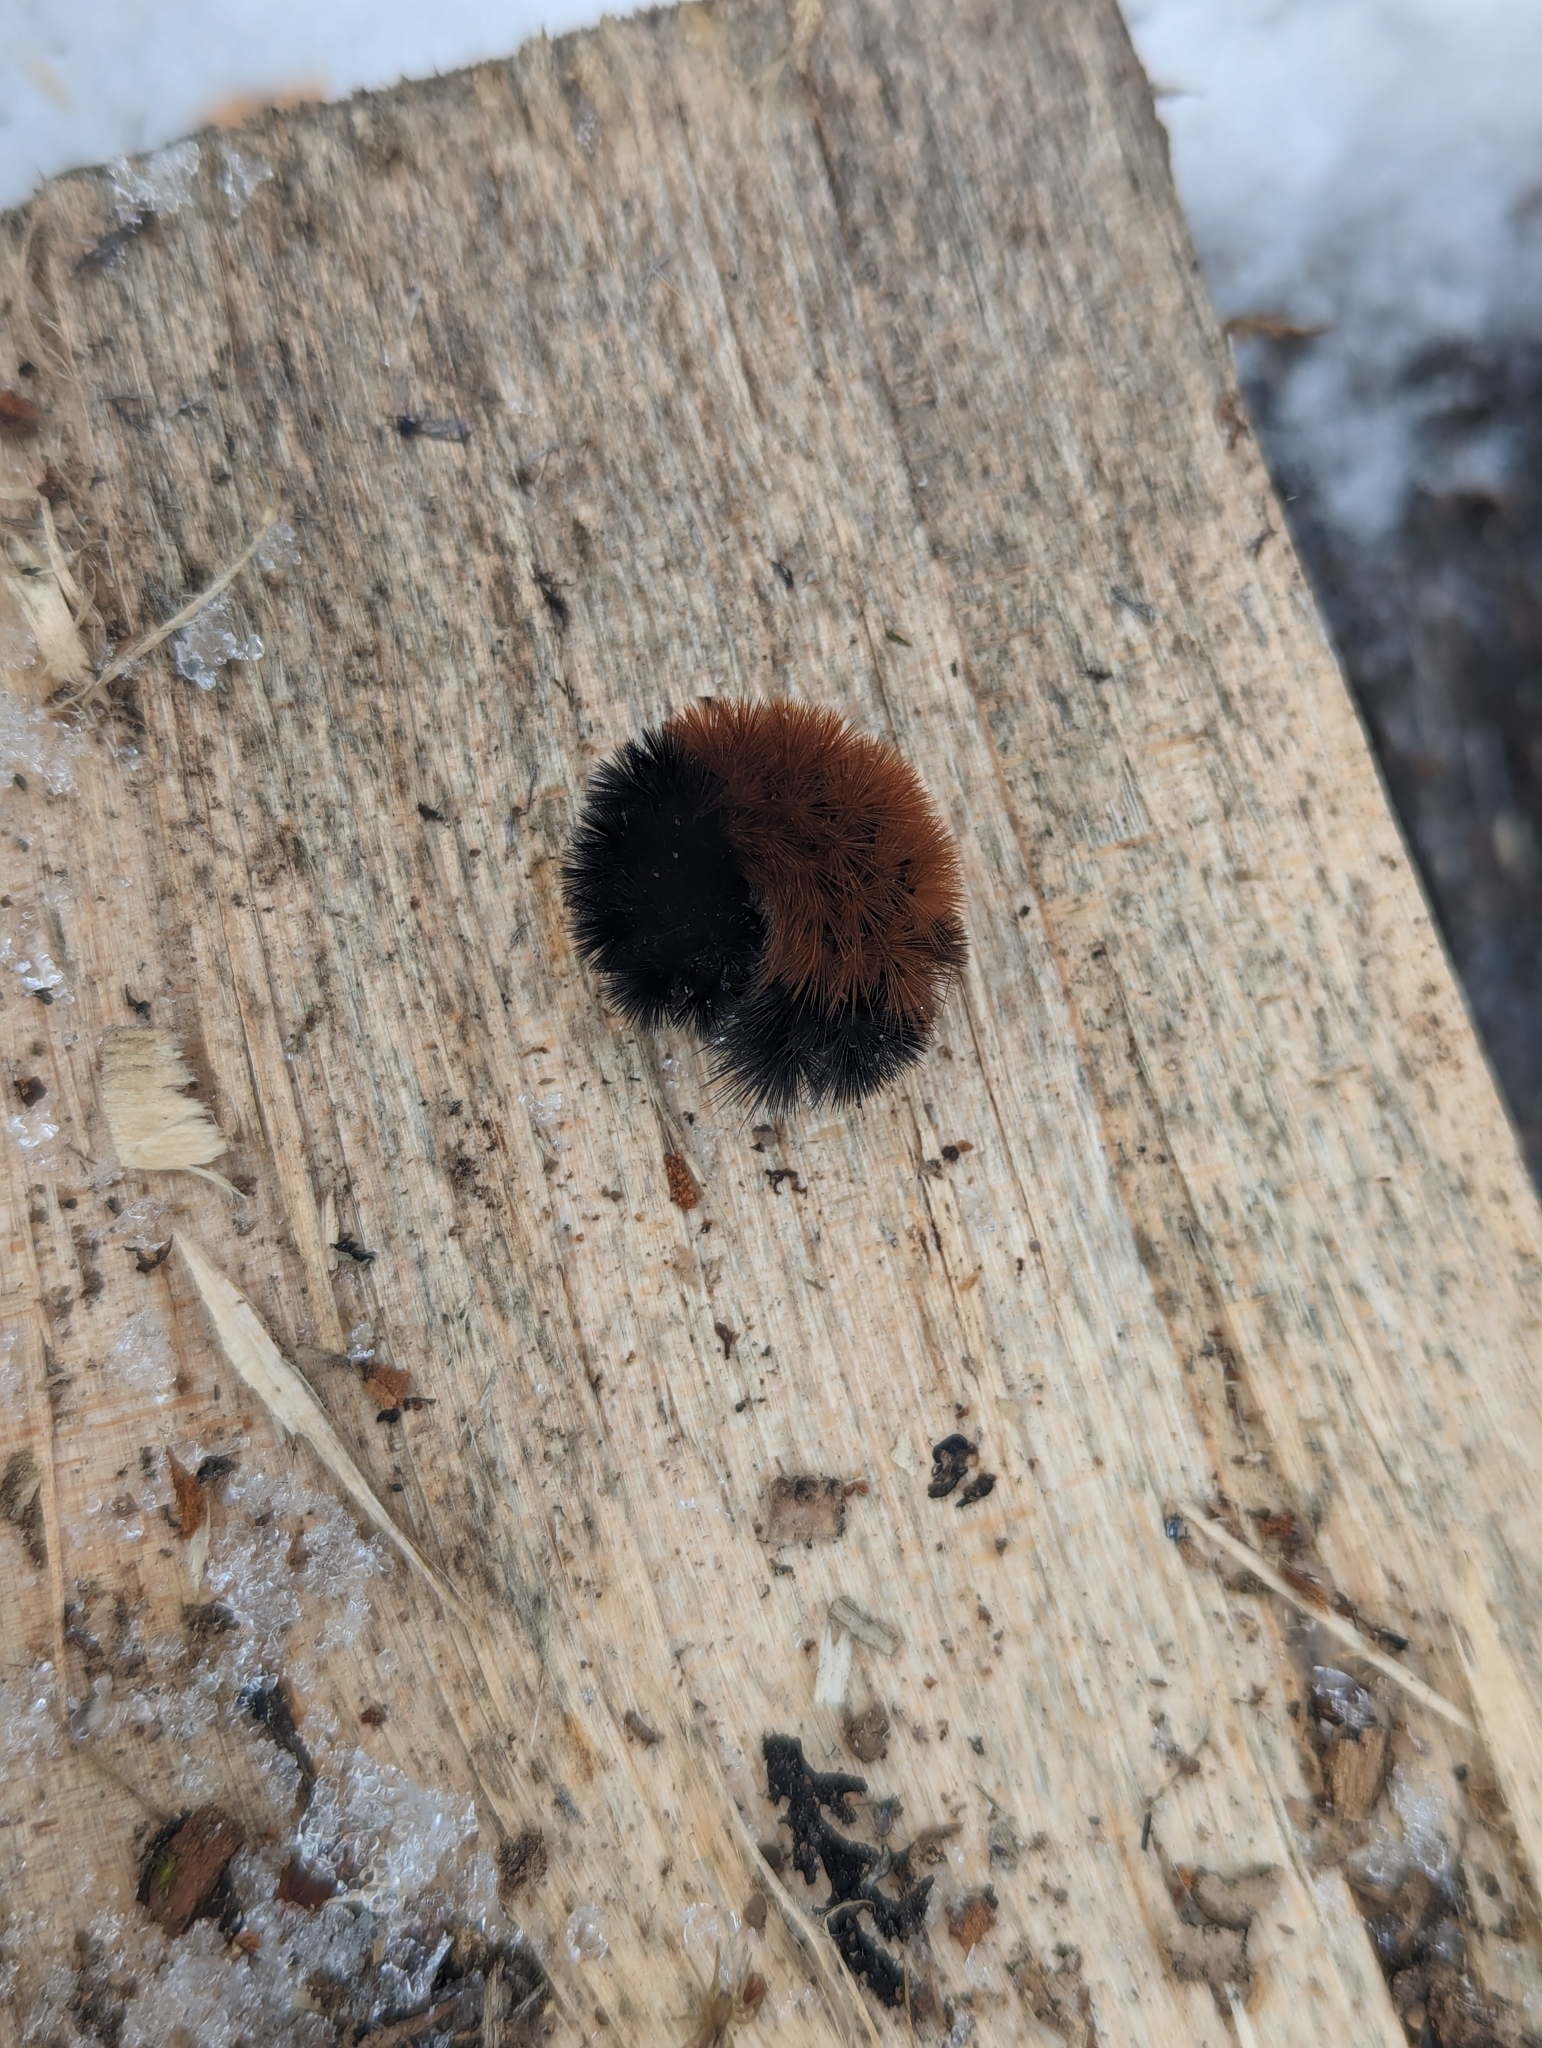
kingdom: Animalia
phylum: Arthropoda
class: Insecta
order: Lepidoptera
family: Erebidae
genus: Pyrrharctia
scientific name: Pyrrharctia isabella
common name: Isabella tiger moth
